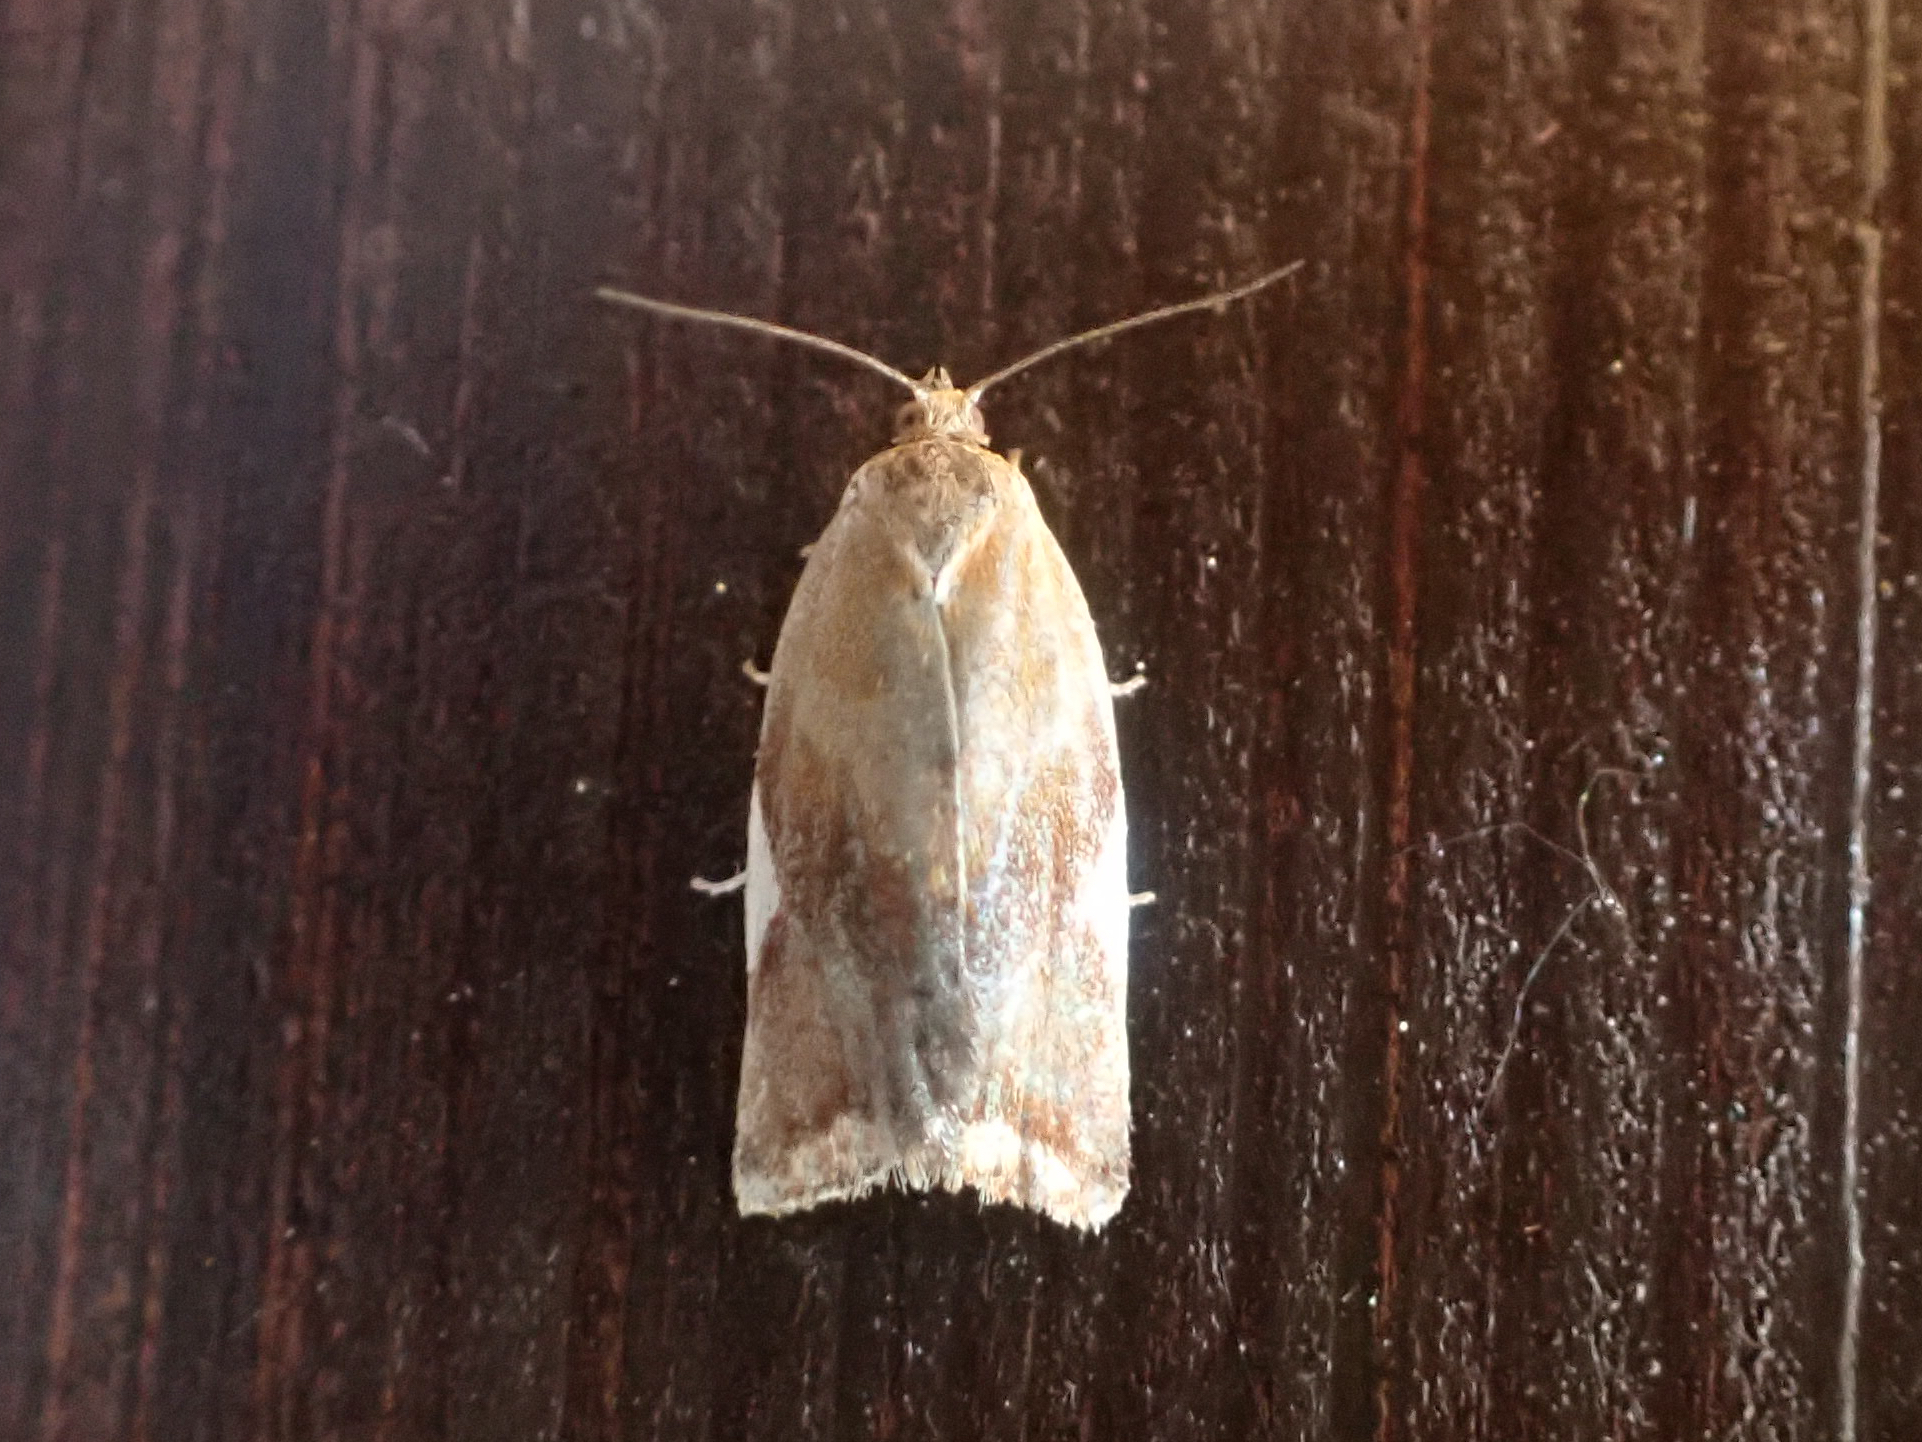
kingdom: Animalia
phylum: Arthropoda
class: Insecta
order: Lepidoptera
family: Tortricidae
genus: Clepsis
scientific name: Clepsis persicana
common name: White triangle tortrix
